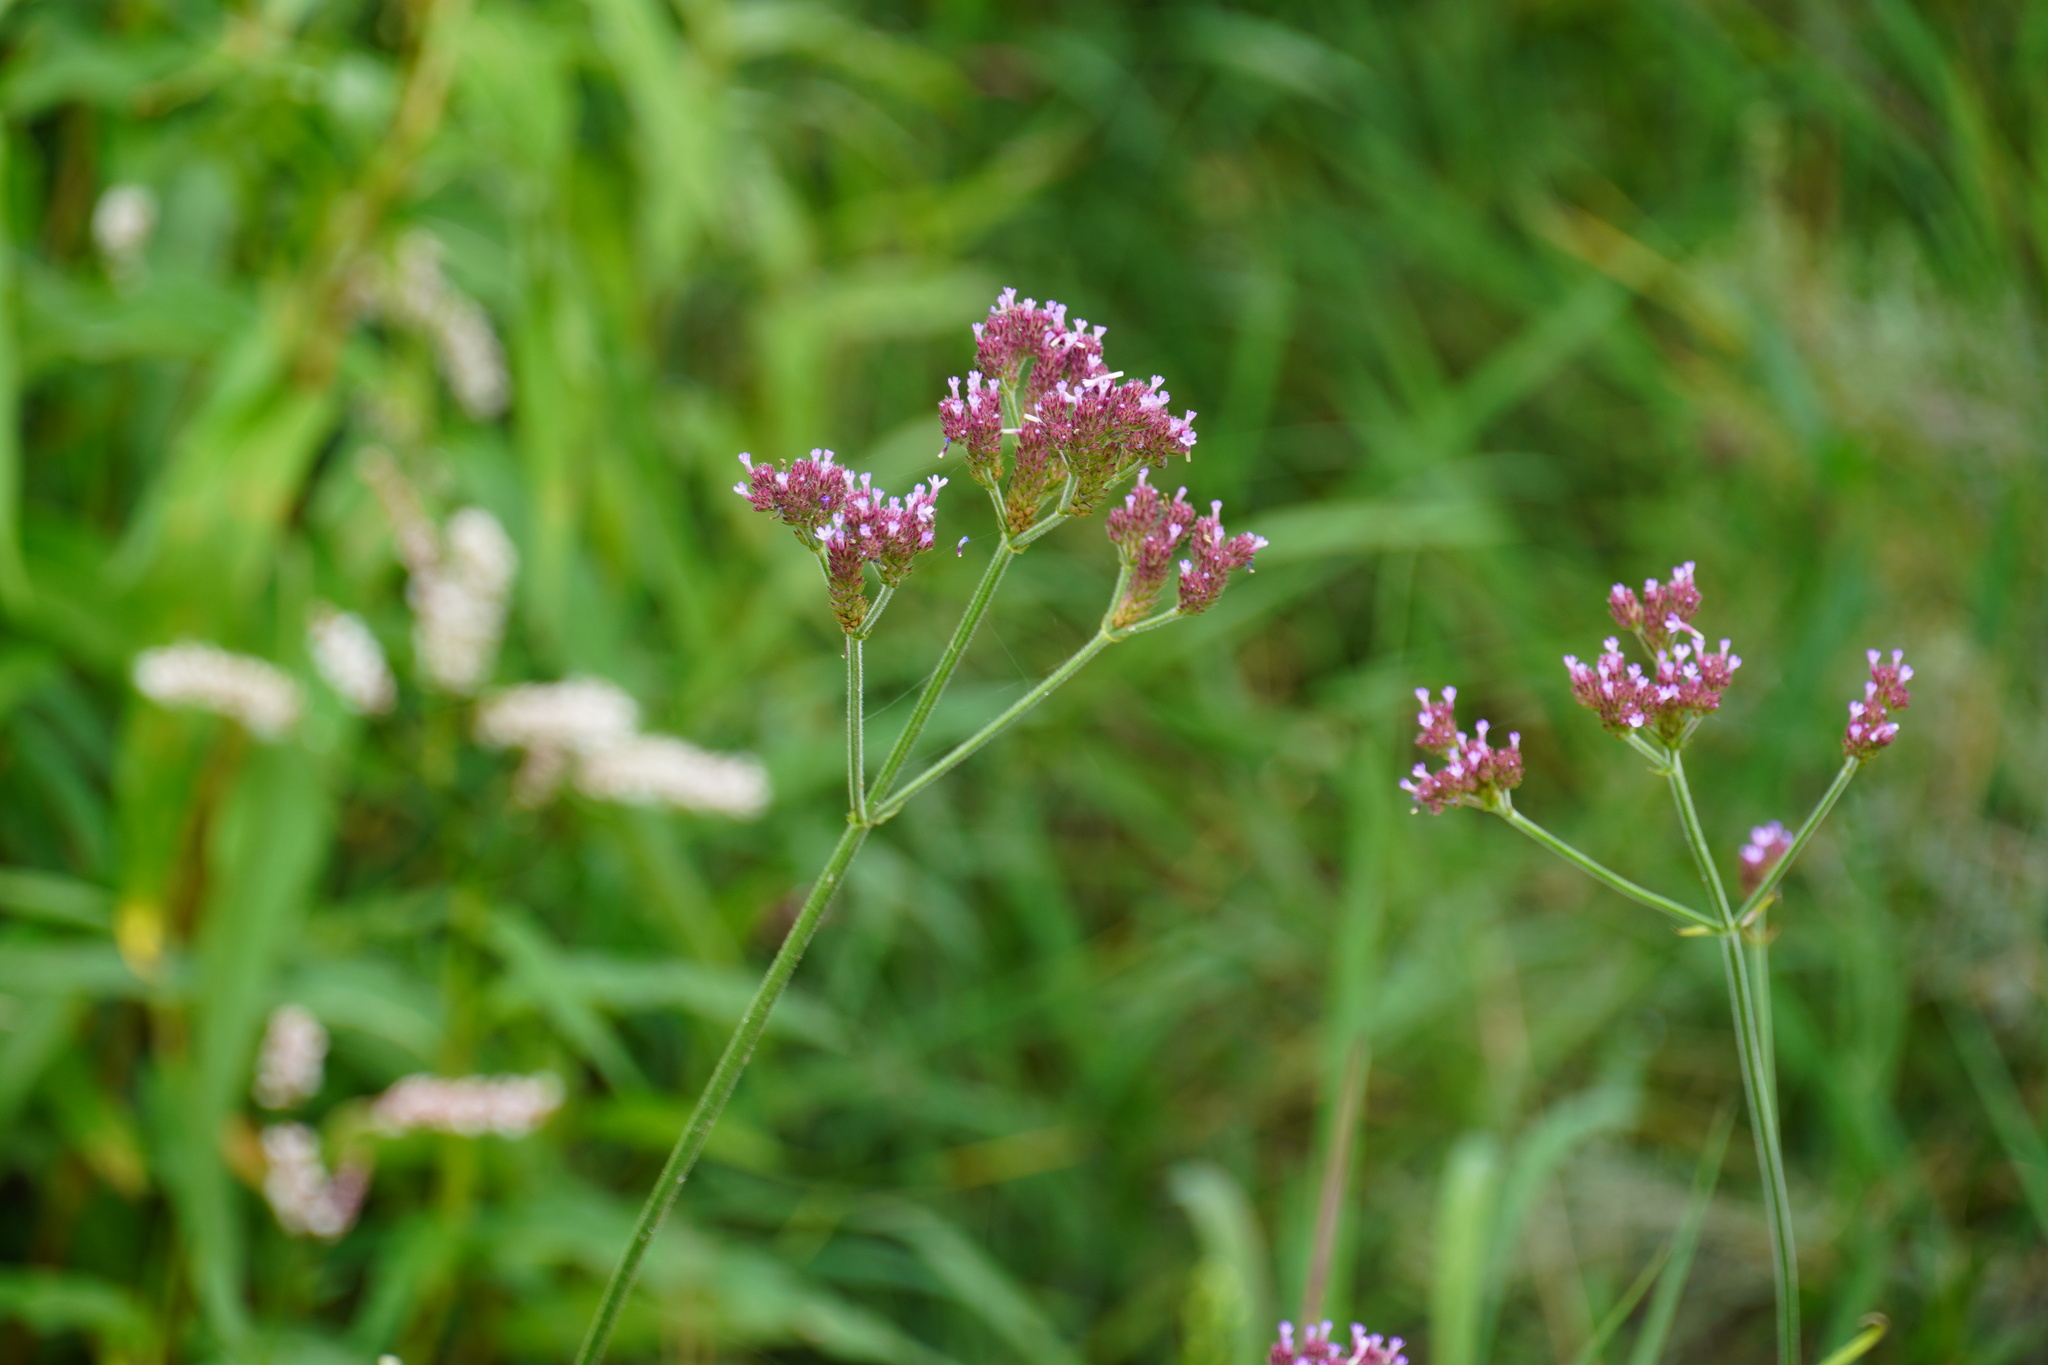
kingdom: Plantae
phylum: Tracheophyta
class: Magnoliopsida
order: Lamiales
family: Verbenaceae
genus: Verbena
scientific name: Verbena bonariensis
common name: Purpletop vervain
